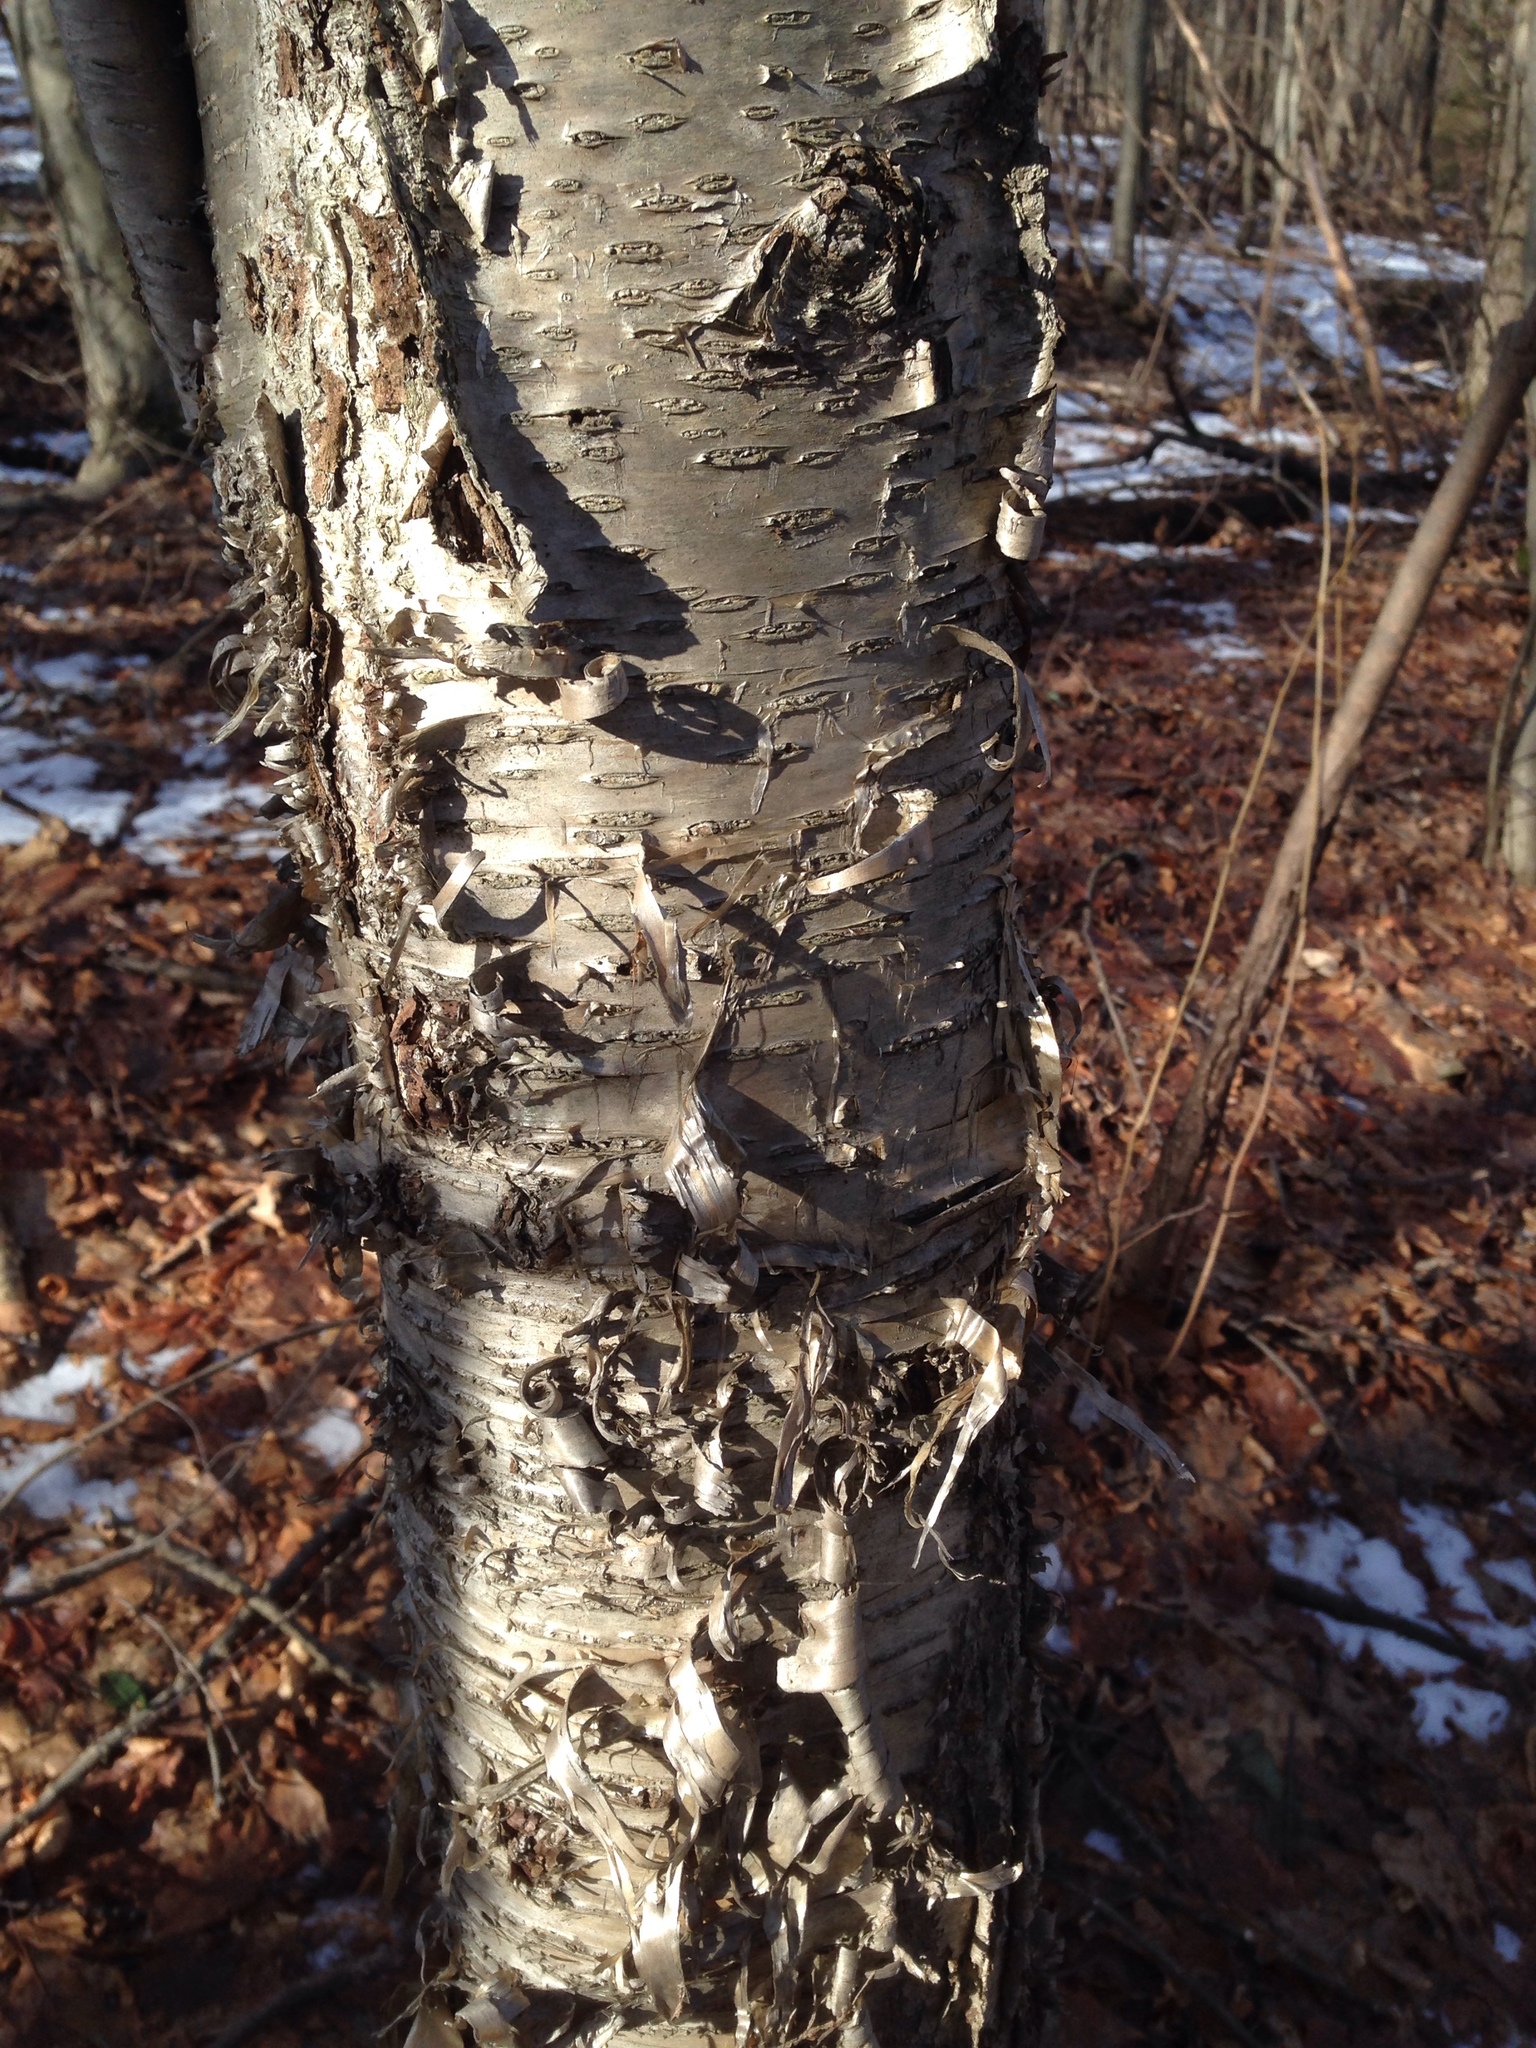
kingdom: Plantae
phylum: Tracheophyta
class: Magnoliopsida
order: Fagales
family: Betulaceae
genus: Betula
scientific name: Betula alleghaniensis
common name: Yellow birch
